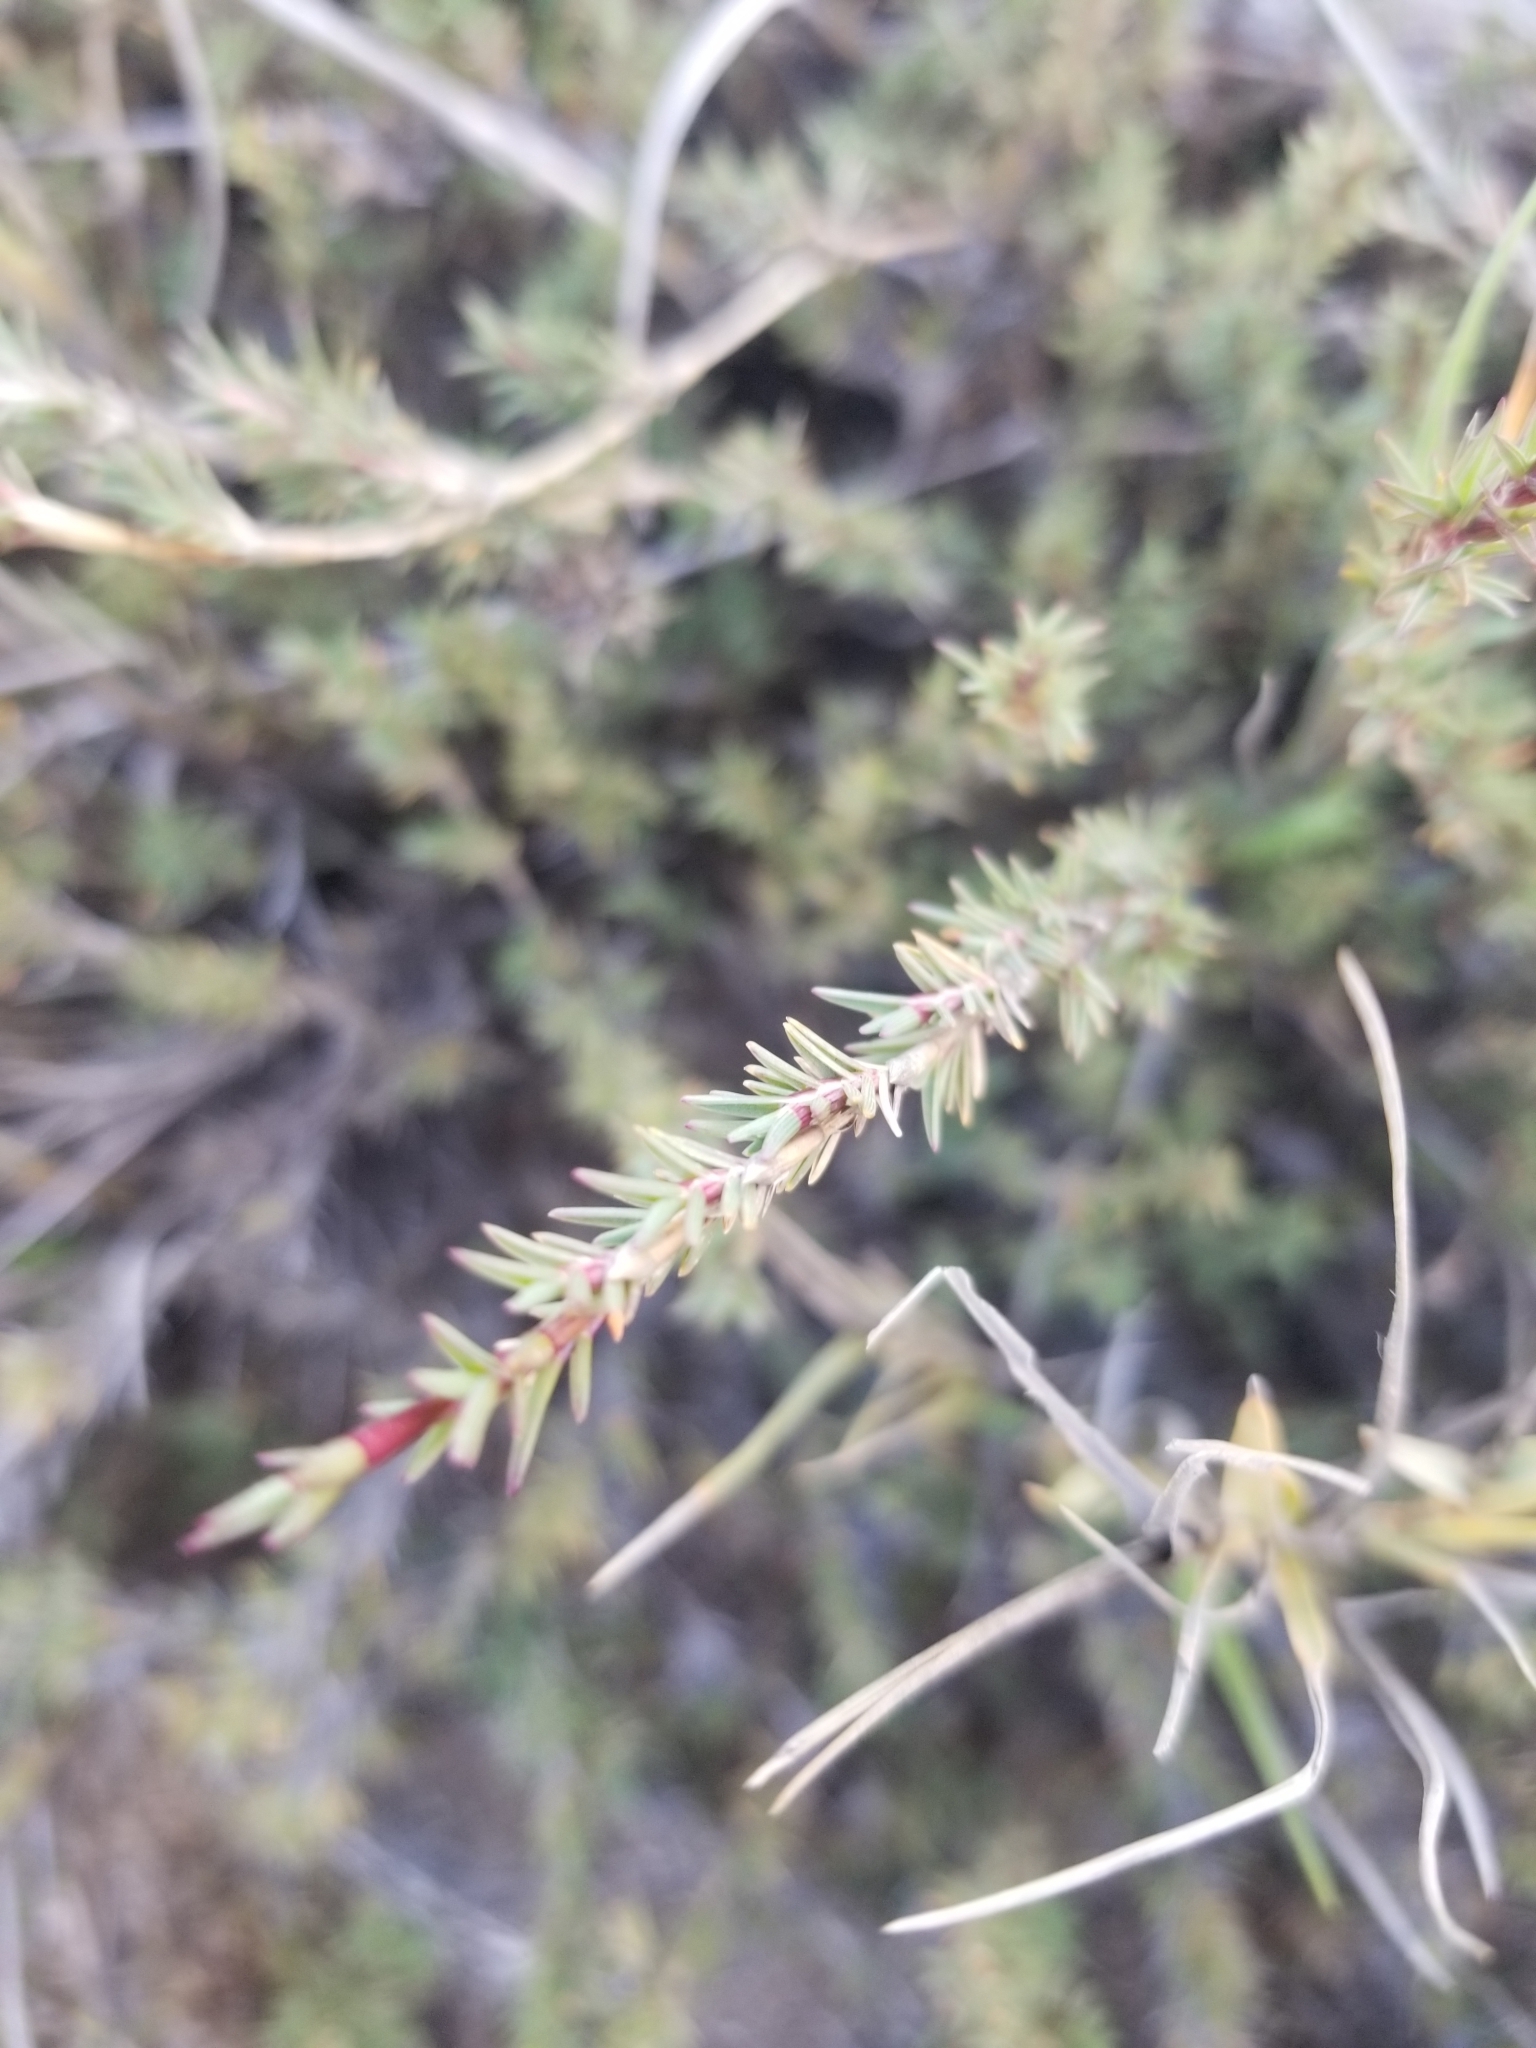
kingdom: Plantae
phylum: Tracheophyta
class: Liliopsida
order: Poales
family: Poaceae
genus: Distichlis
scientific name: Distichlis littoralis
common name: Shore grass
